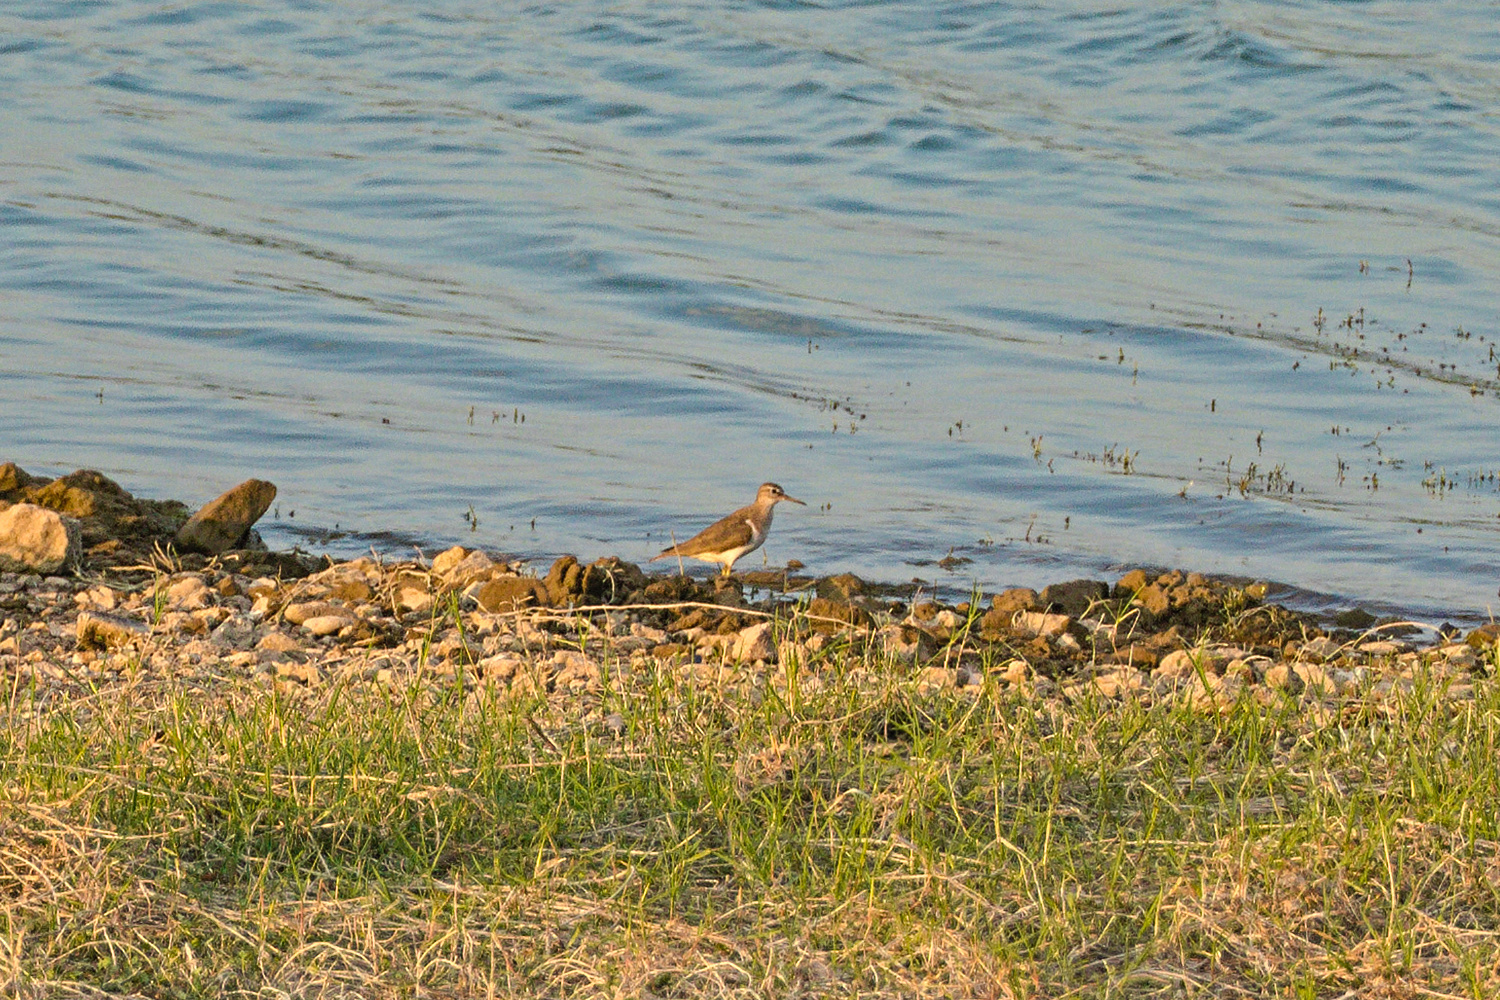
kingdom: Animalia
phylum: Chordata
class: Aves
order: Charadriiformes
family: Scolopacidae
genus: Actitis
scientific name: Actitis hypoleucos
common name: Common sandpiper
